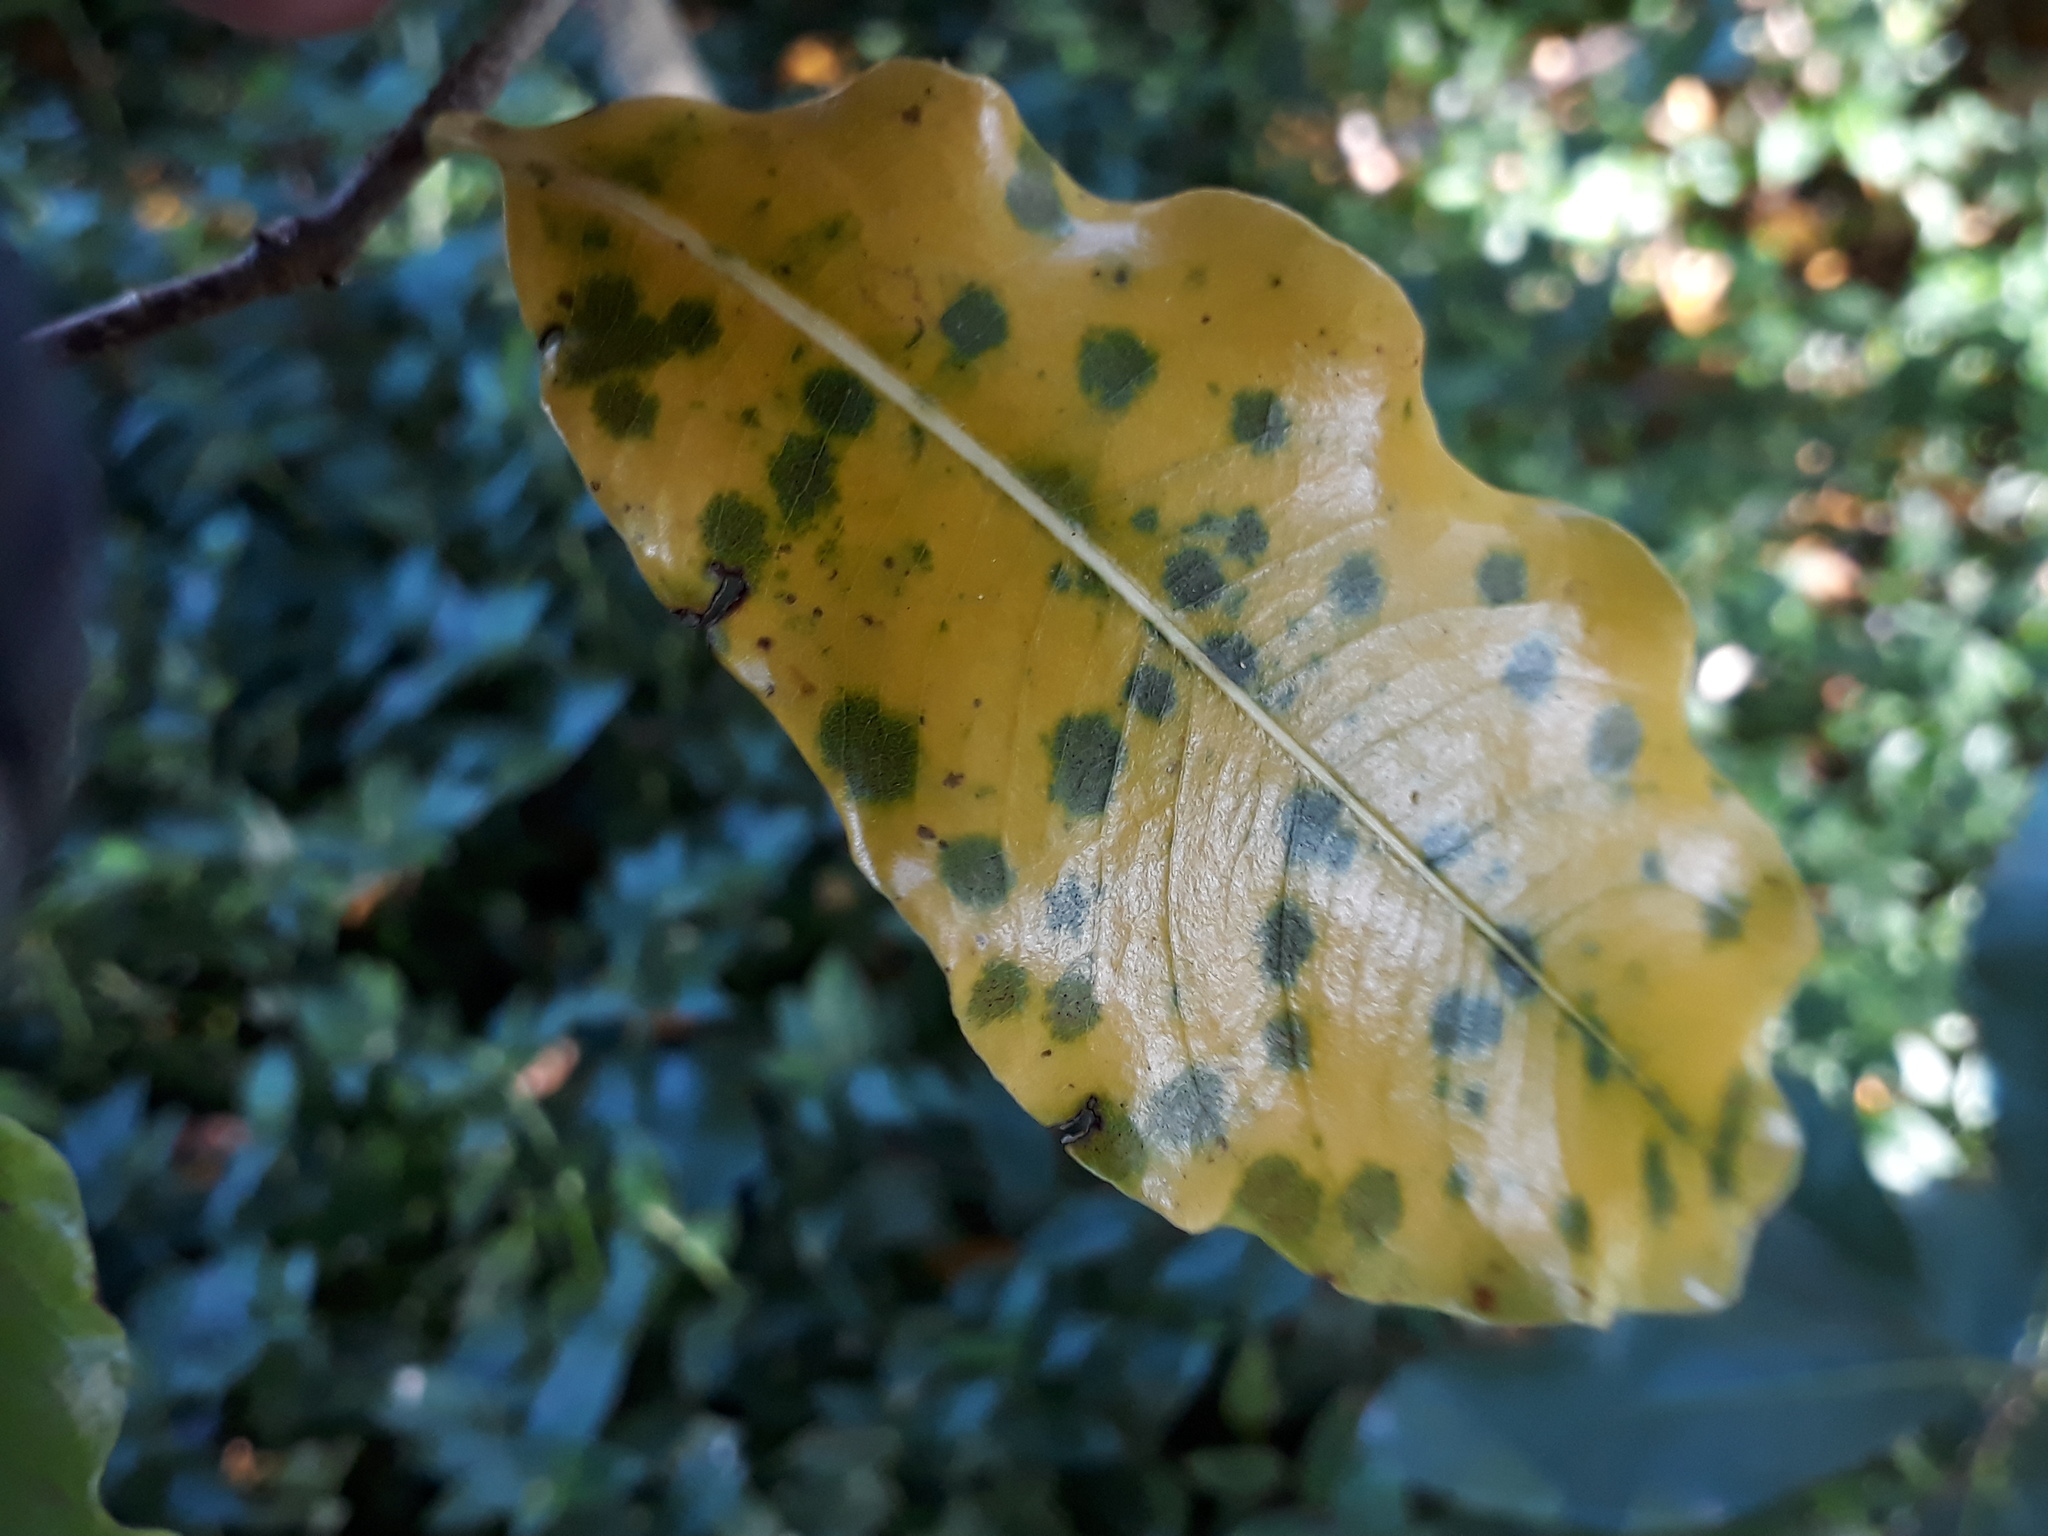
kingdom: Plantae
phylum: Tracheophyta
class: Magnoliopsida
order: Apiales
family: Pittosporaceae
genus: Pittosporum
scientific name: Pittosporum eugenioides
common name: Lemonwood
